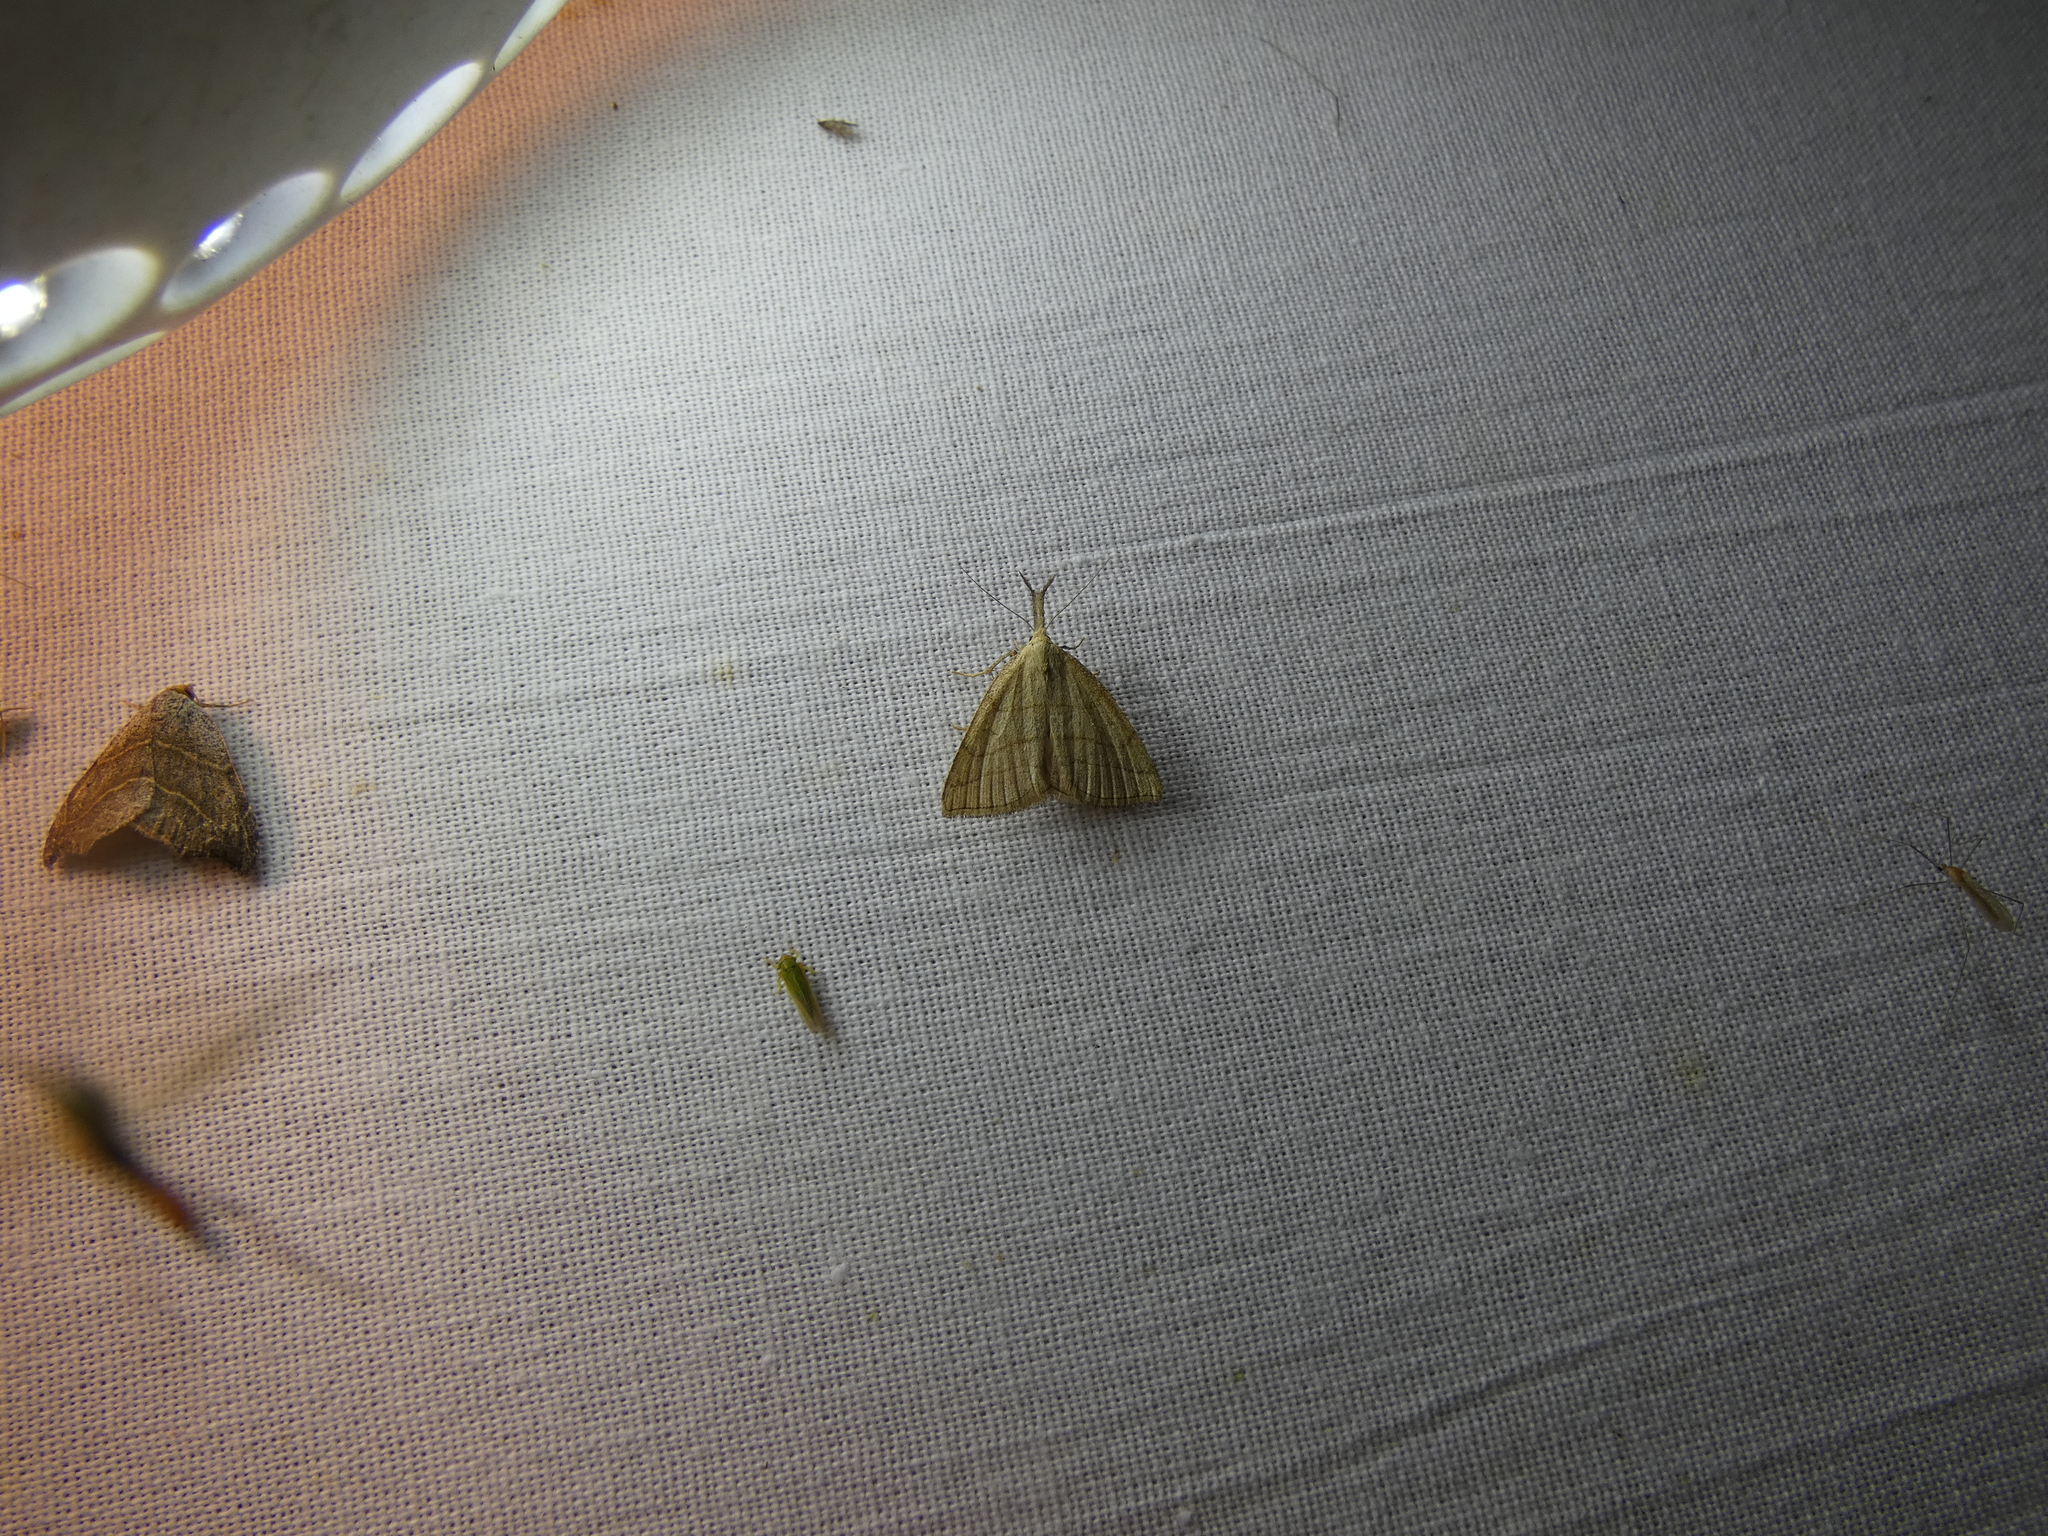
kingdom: Animalia
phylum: Arthropoda
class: Insecta
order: Lepidoptera
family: Erebidae
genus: Polypogon
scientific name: Polypogon tentacularia
